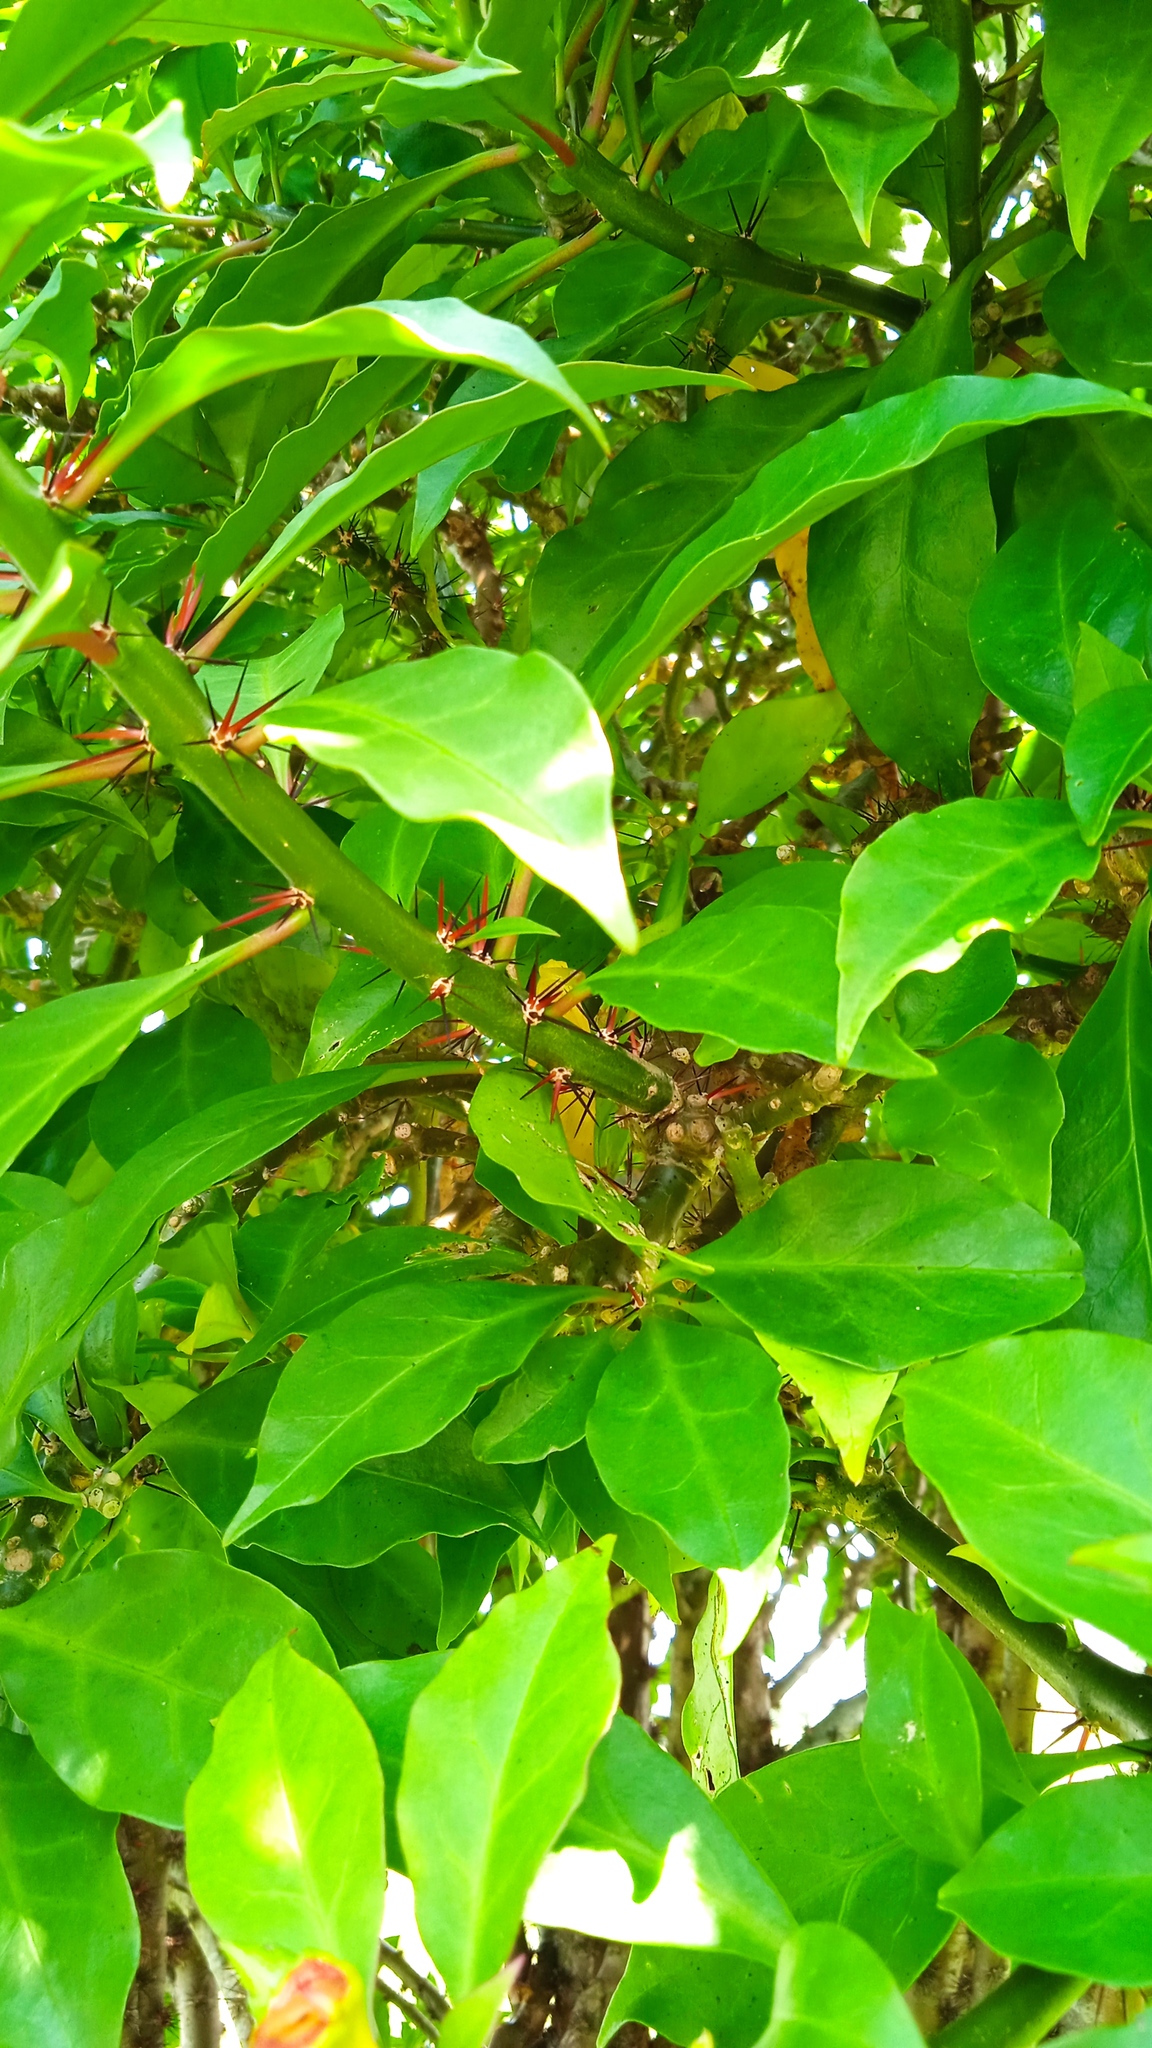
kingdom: Plantae
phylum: Tracheophyta
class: Magnoliopsida
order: Caryophyllales
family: Cactaceae
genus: Leuenbergeria
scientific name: Leuenbergeria bleo
